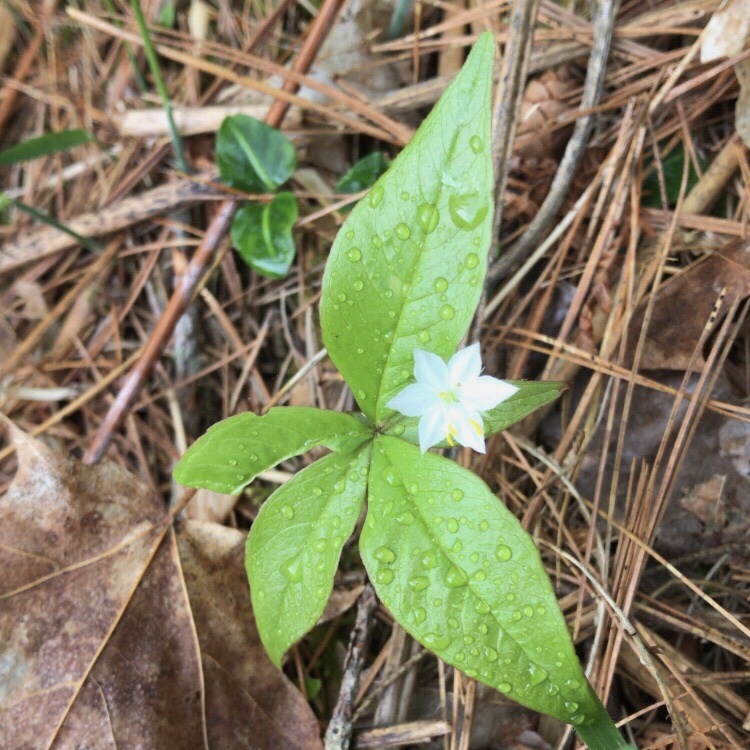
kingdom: Plantae
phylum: Tracheophyta
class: Magnoliopsida
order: Ericales
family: Primulaceae
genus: Lysimachia
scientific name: Lysimachia borealis
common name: American starflower
